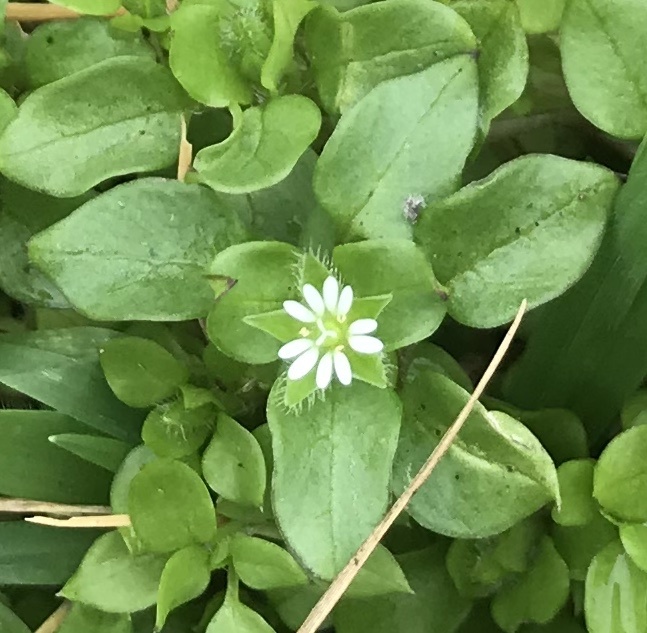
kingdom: Plantae
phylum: Tracheophyta
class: Magnoliopsida
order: Caryophyllales
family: Caryophyllaceae
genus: Stellaria
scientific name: Stellaria media
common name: Common chickweed
